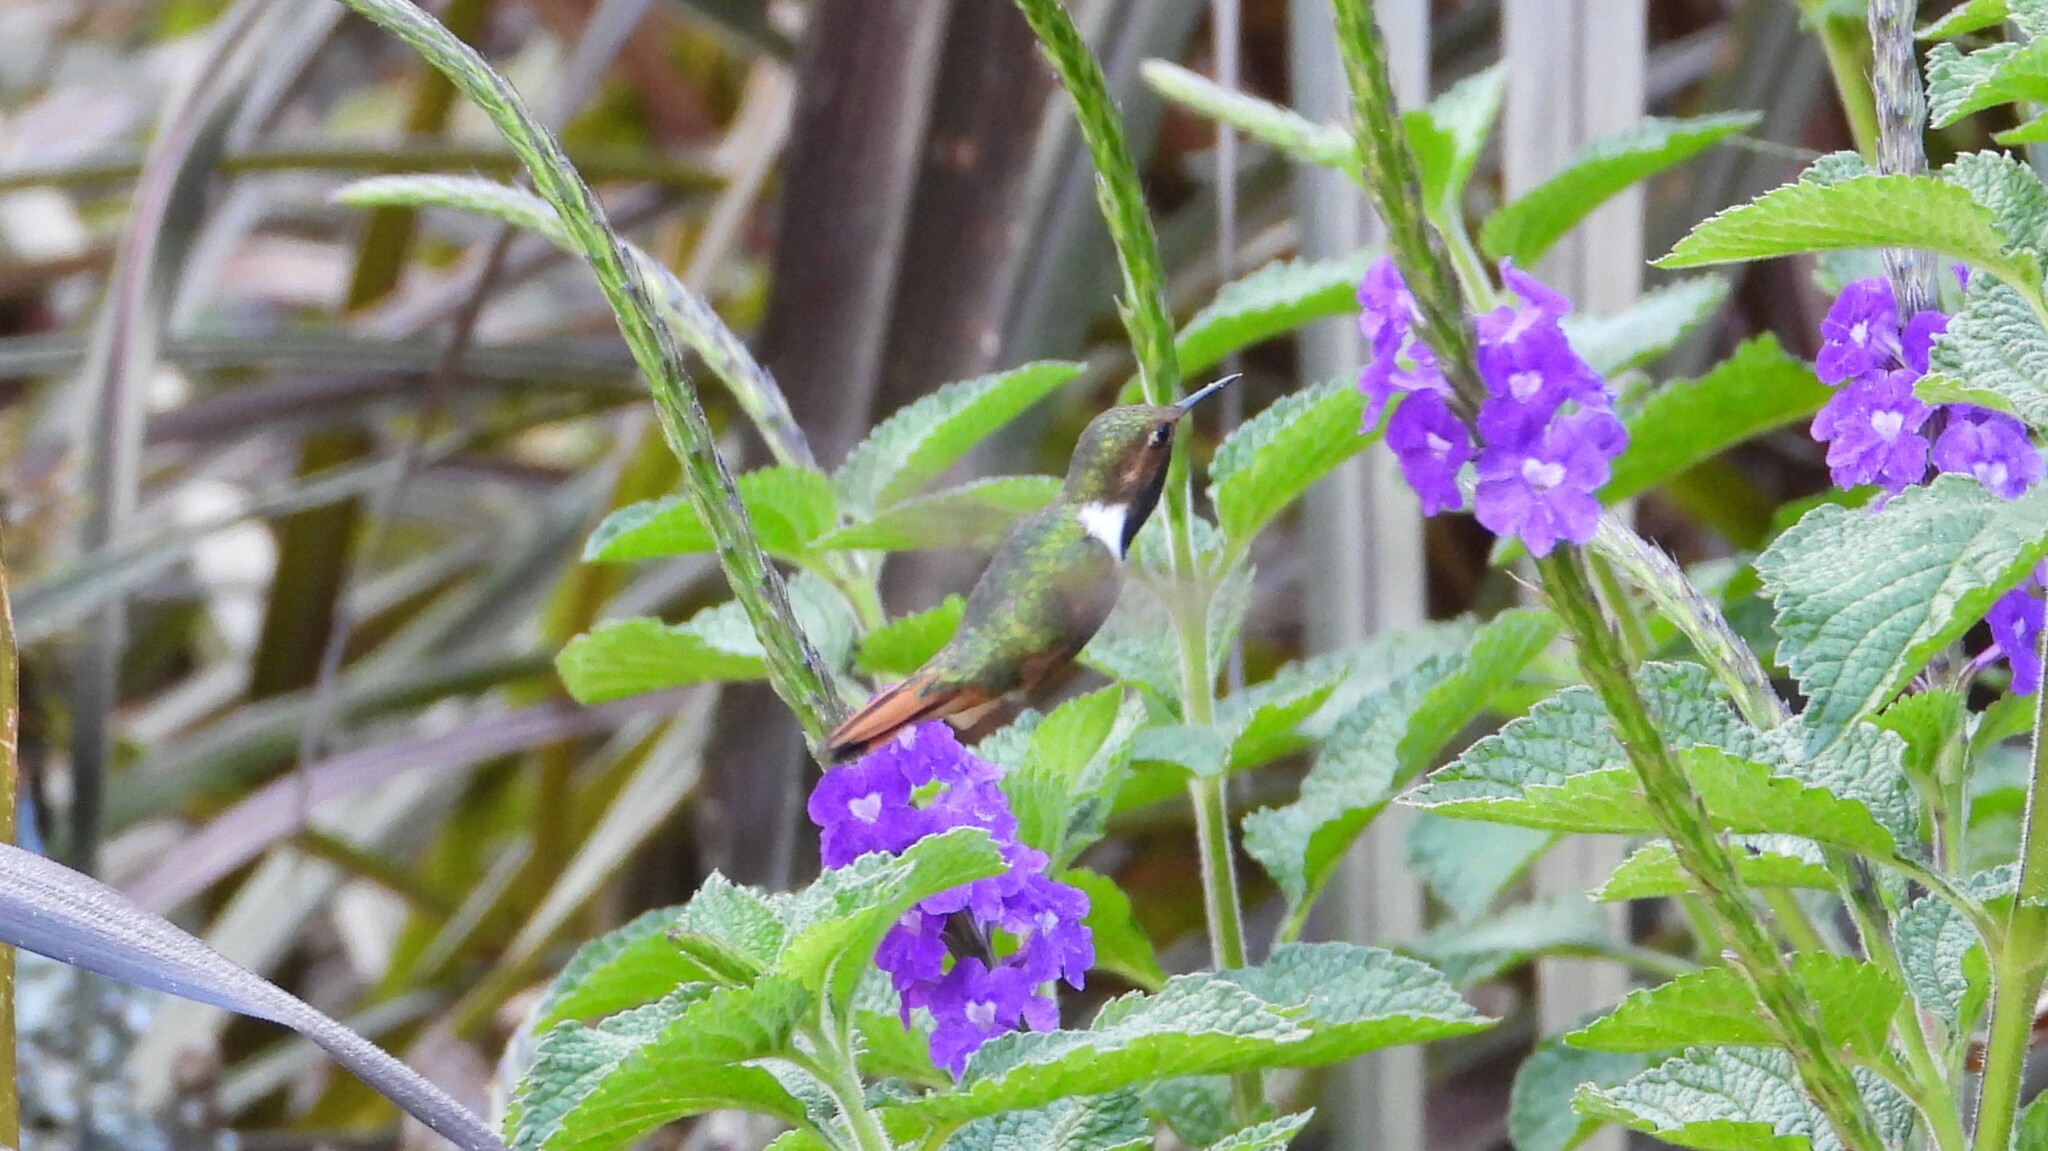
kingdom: Animalia
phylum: Chordata
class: Aves
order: Apodiformes
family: Trochilidae
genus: Selasphorus
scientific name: Selasphorus scintilla
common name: Scintillant hummingbird
